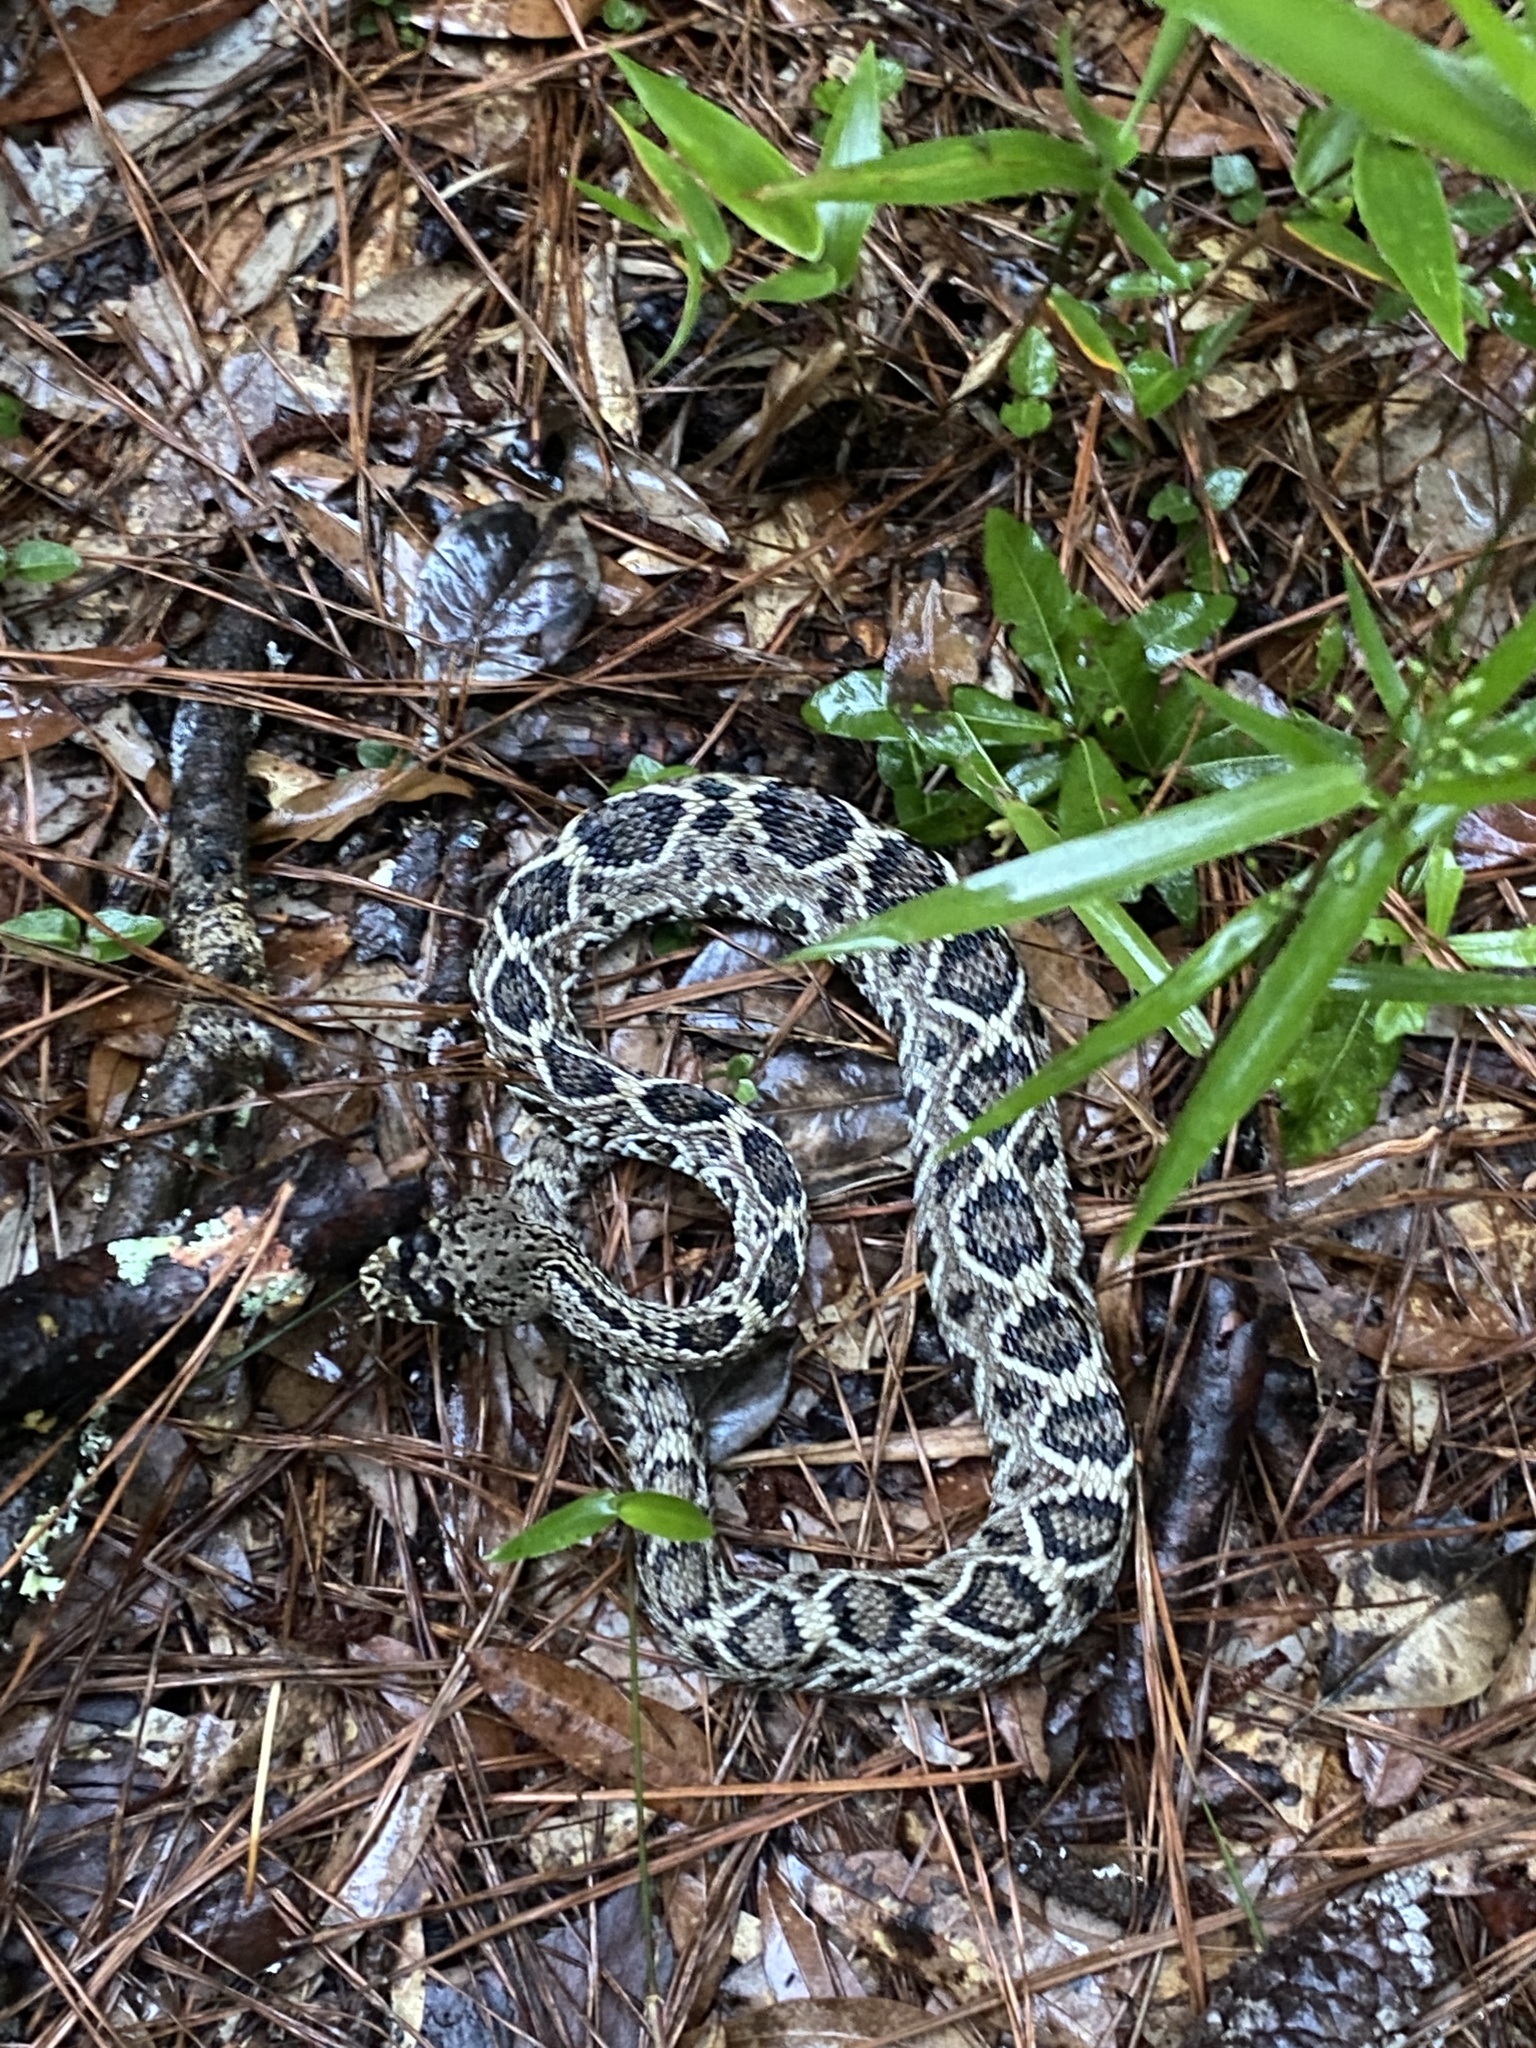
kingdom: Animalia
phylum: Chordata
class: Squamata
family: Viperidae
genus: Crotalus
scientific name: Crotalus adamanteus
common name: Eastern diamondback rattlesnake
